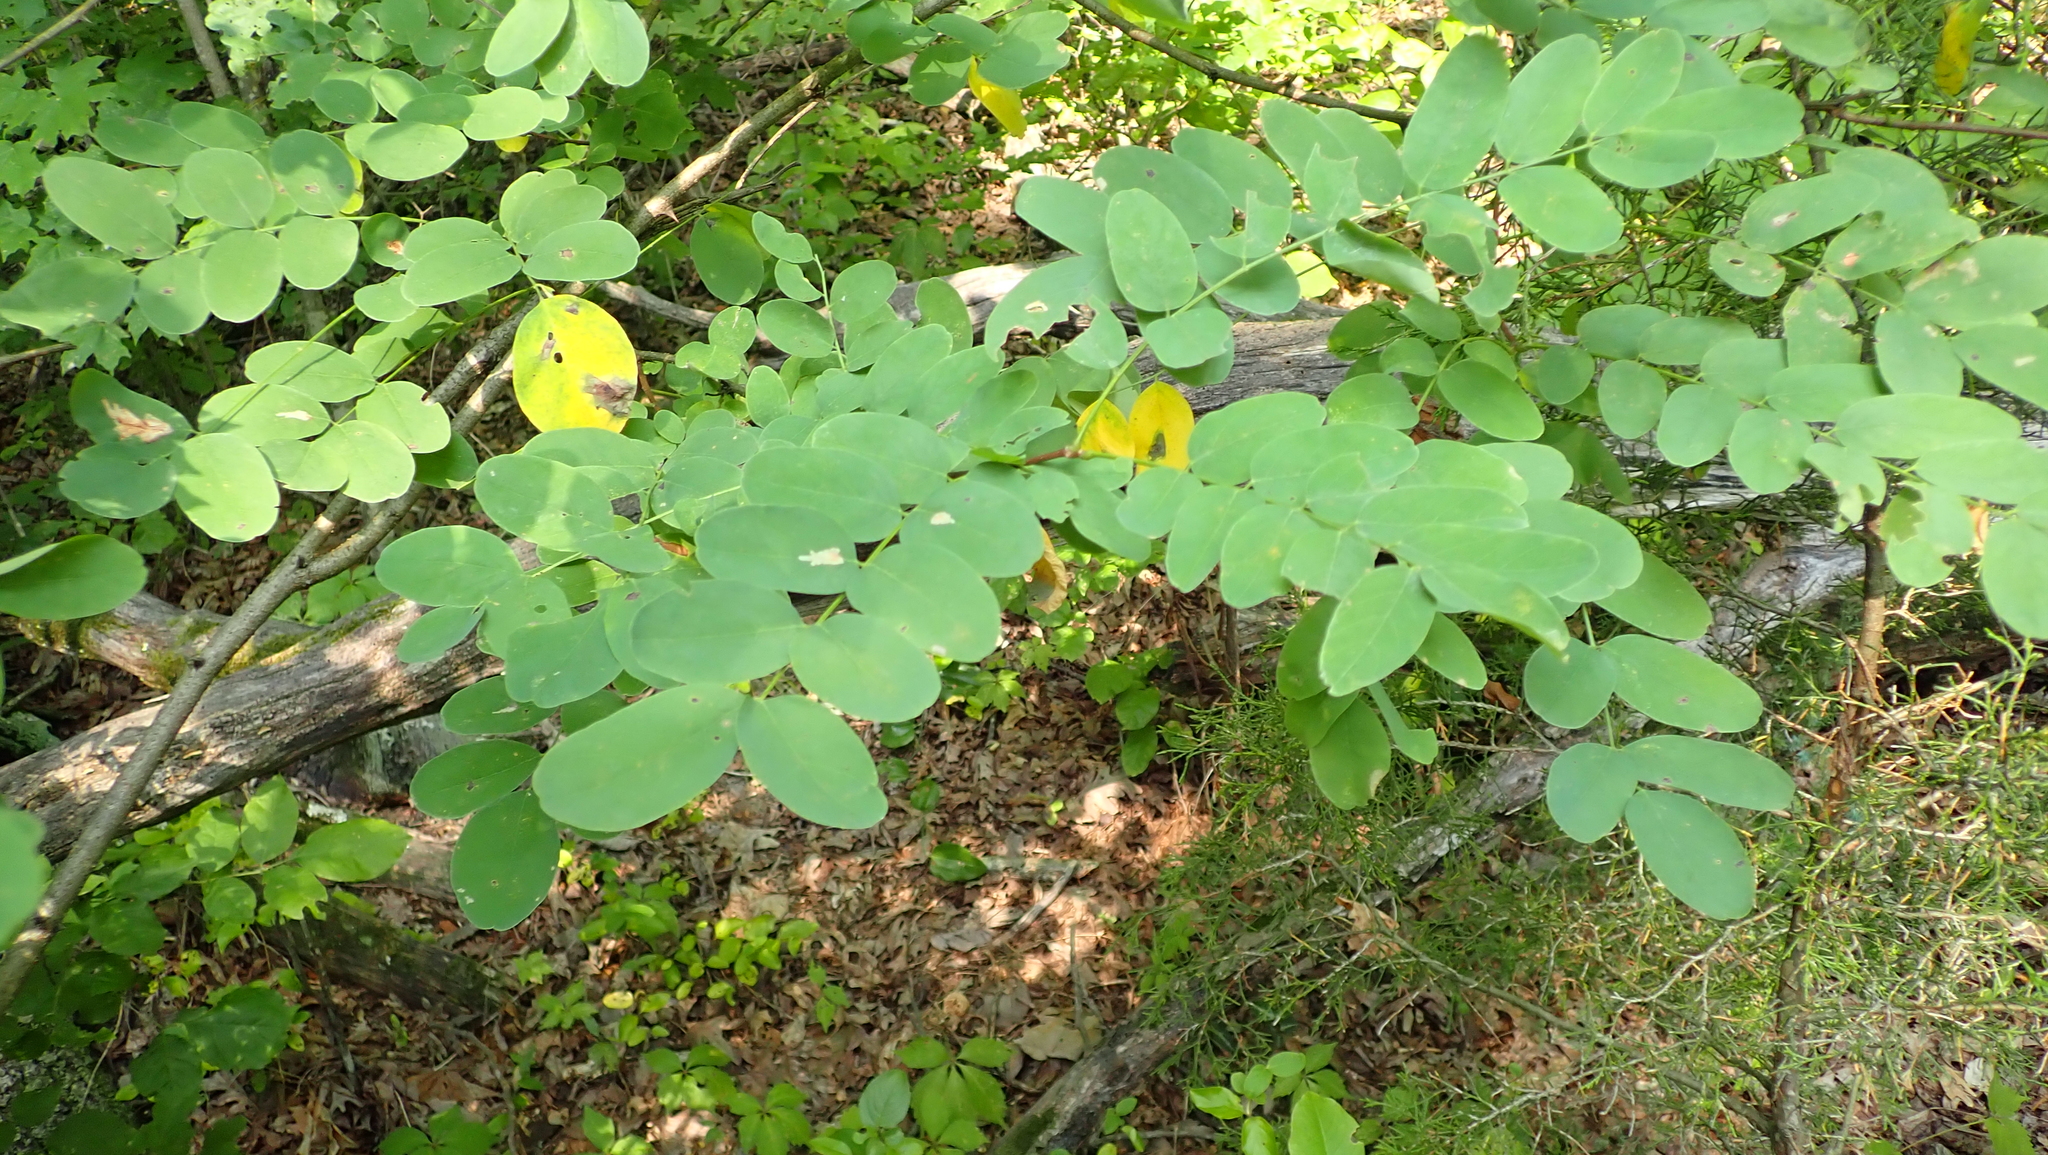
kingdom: Plantae
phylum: Tracheophyta
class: Magnoliopsida
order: Fabales
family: Fabaceae
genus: Robinia
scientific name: Robinia pseudoacacia
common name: Black locust
